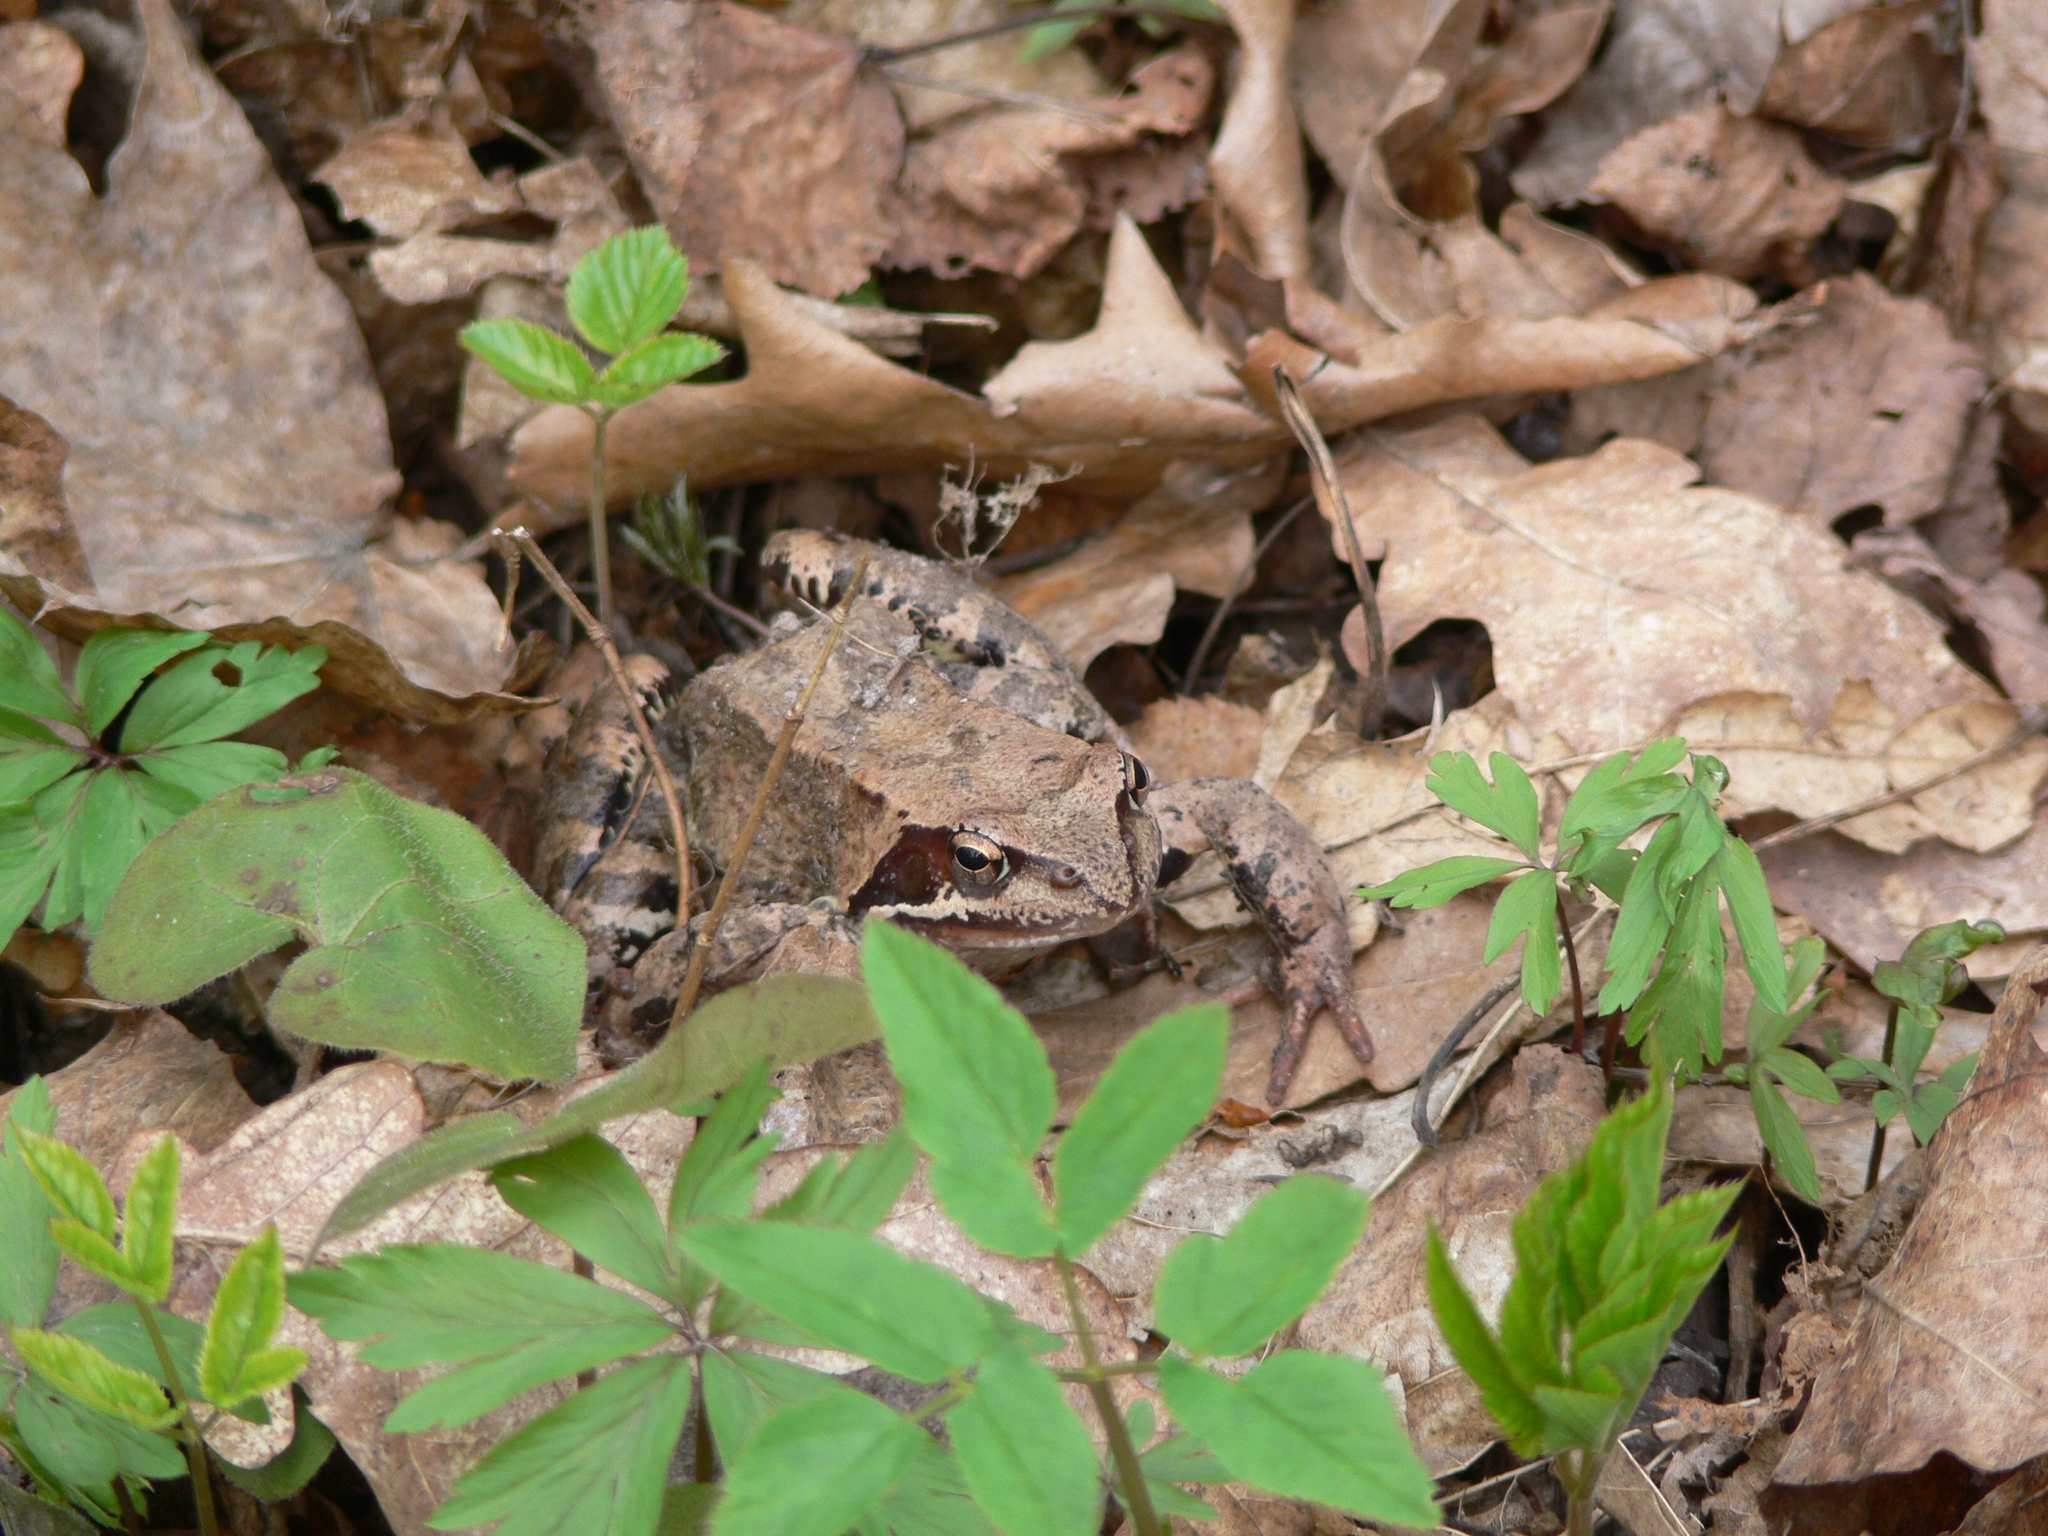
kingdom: Animalia
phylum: Chordata
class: Amphibia
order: Anura
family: Ranidae
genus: Rana
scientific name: Rana temporaria
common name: Common frog
